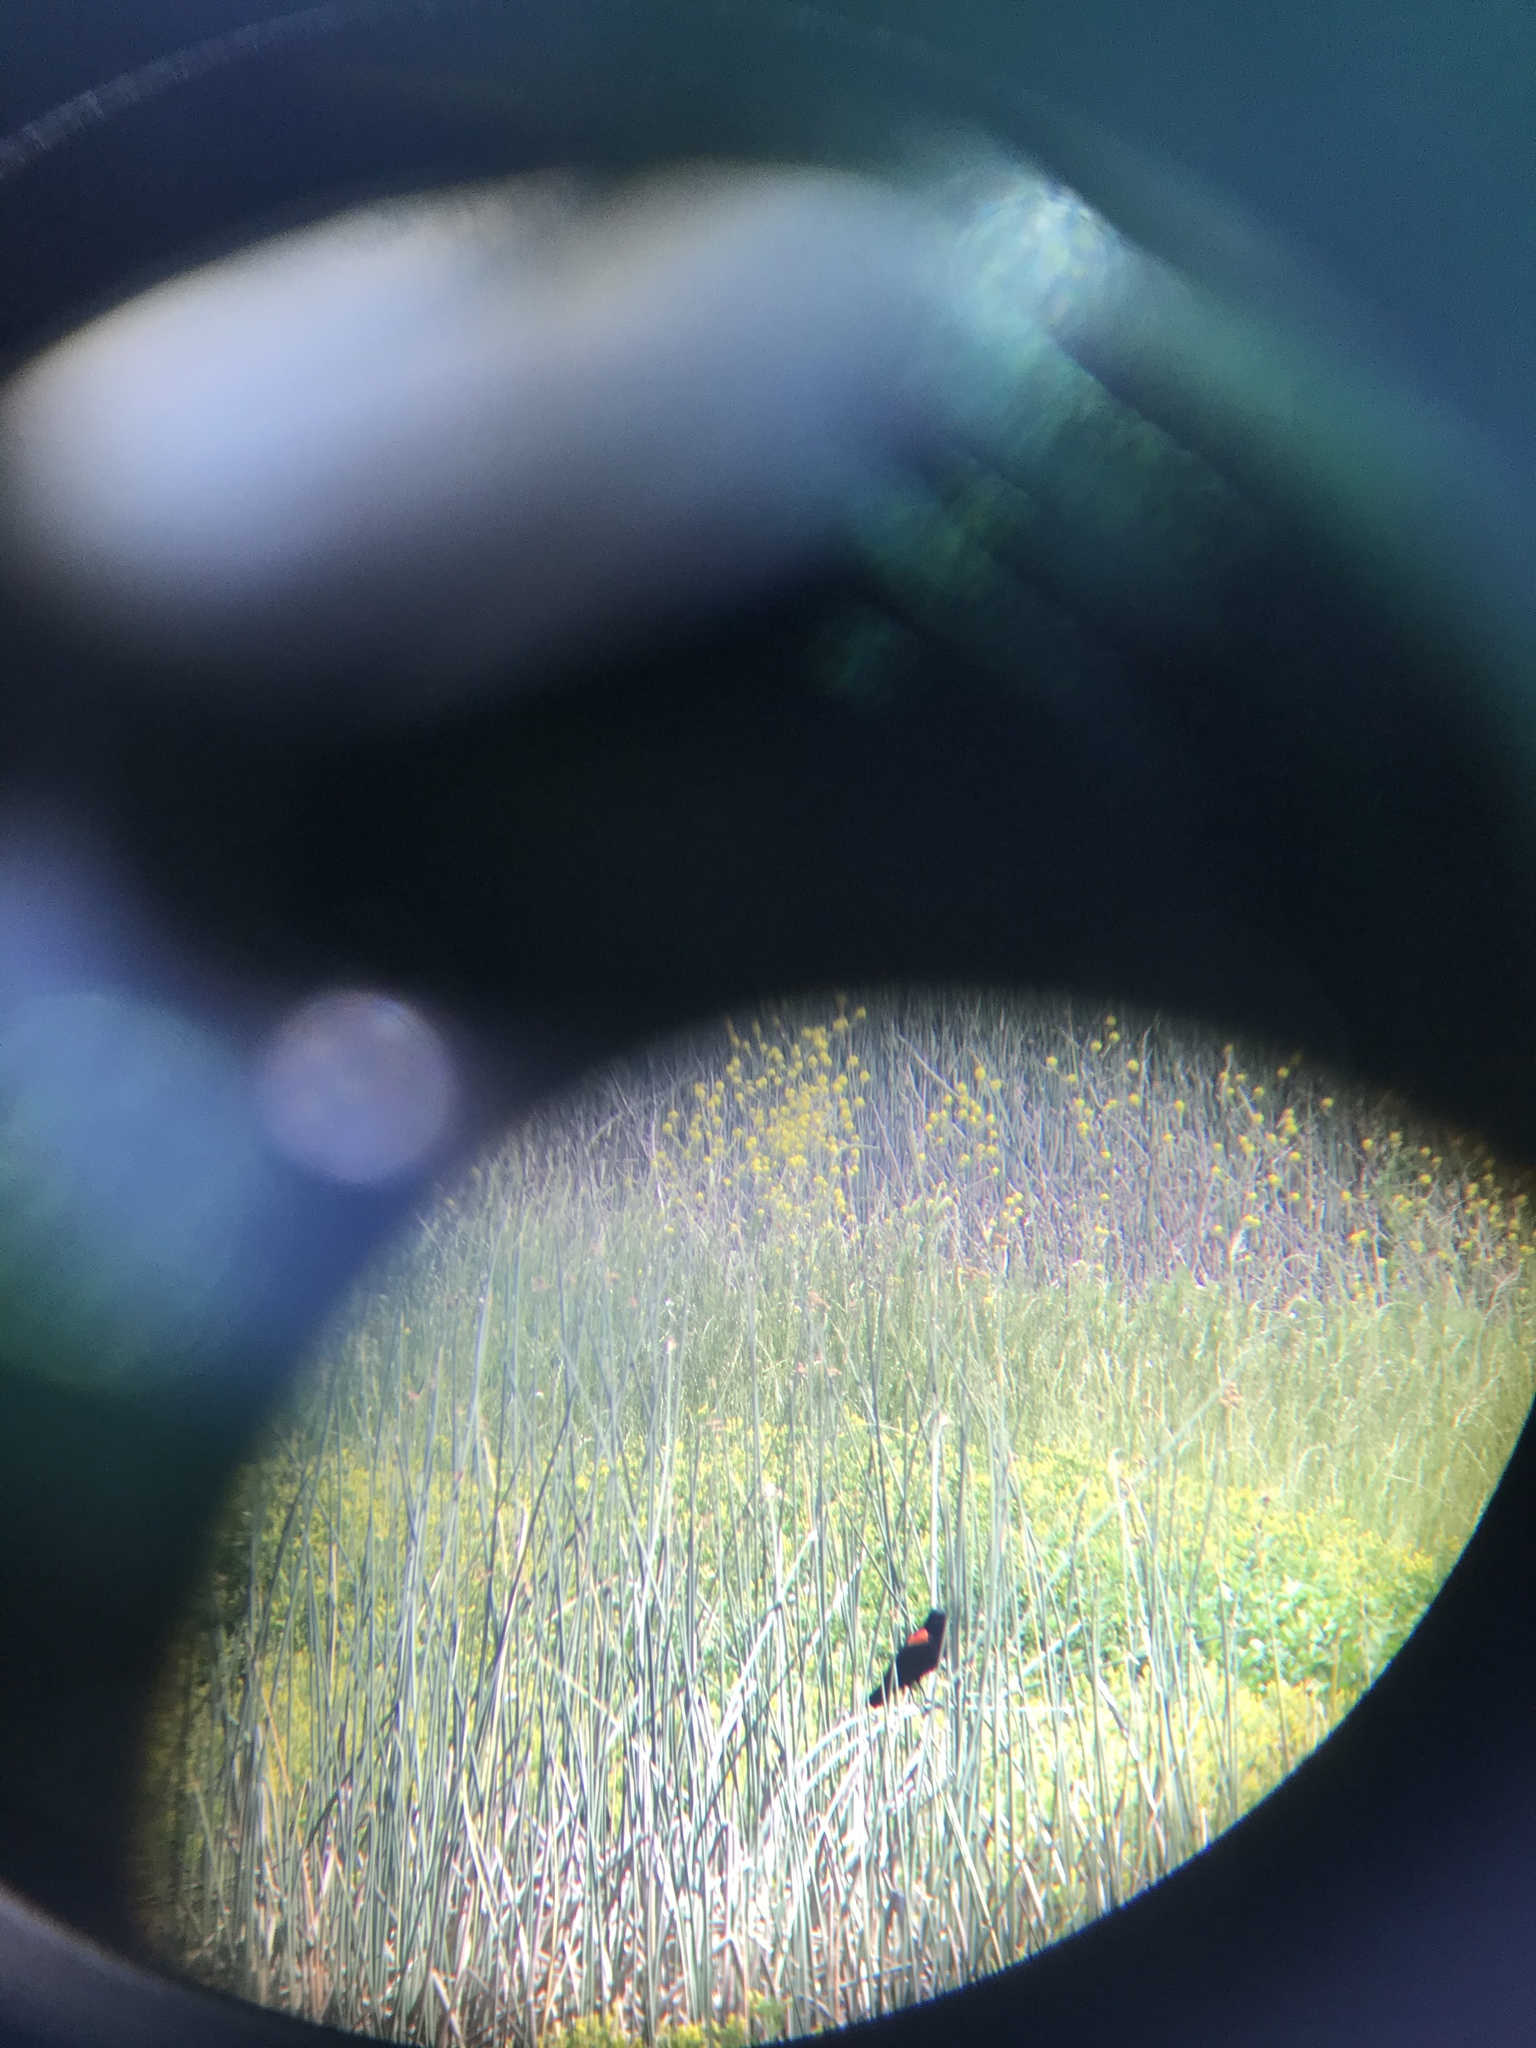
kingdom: Animalia
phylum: Chordata
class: Aves
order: Passeriformes
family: Icteridae
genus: Agelaius
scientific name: Agelaius phoeniceus
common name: Red-winged blackbird
